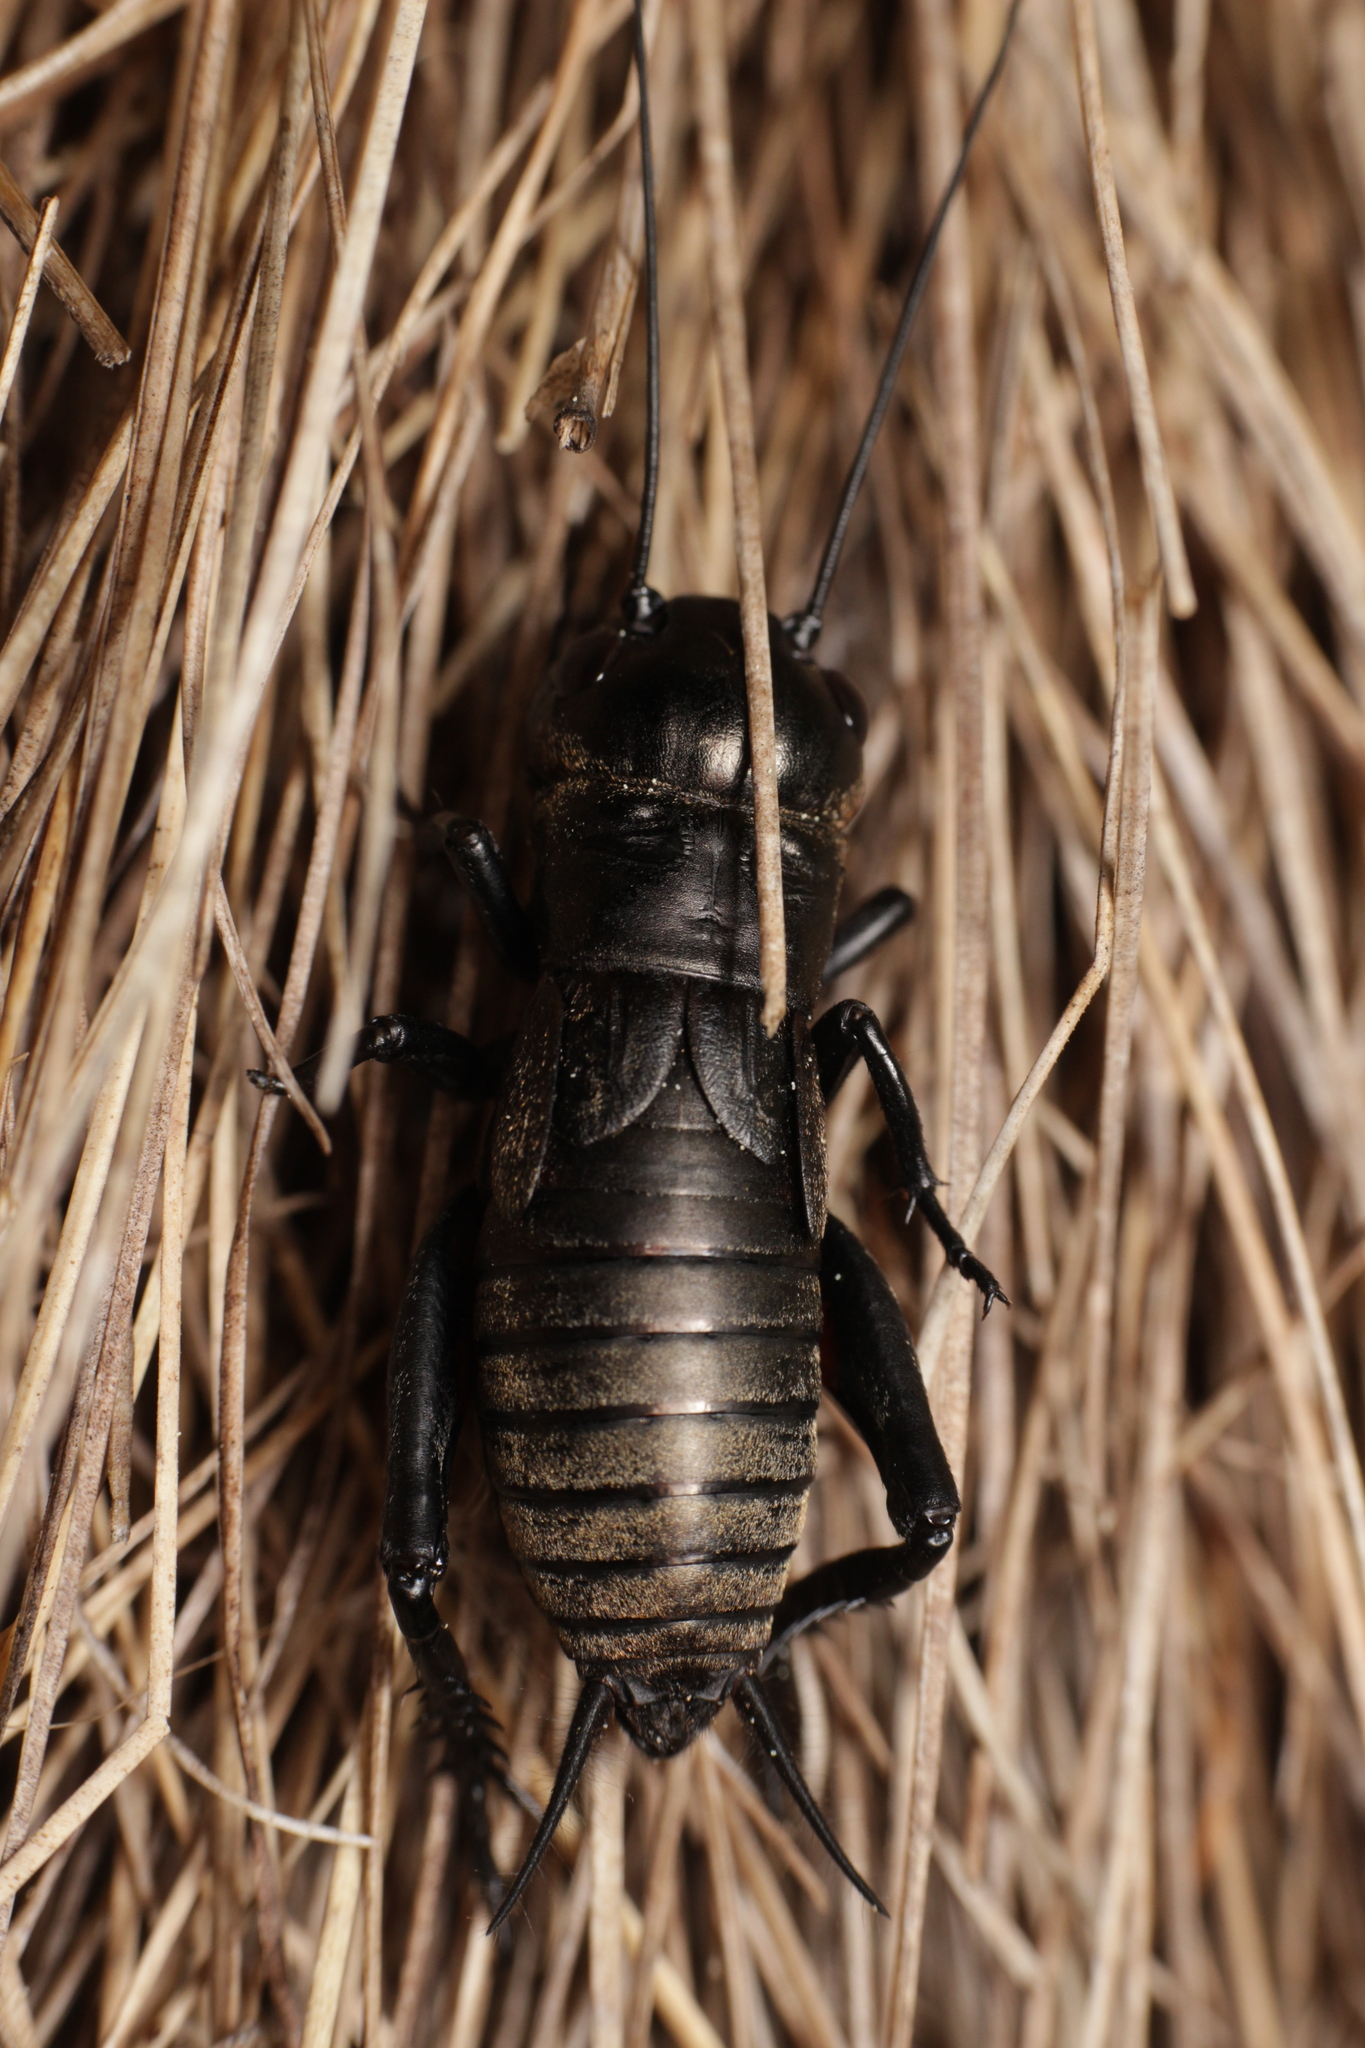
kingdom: Animalia
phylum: Arthropoda
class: Insecta
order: Orthoptera
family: Gryllidae
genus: Gryllus
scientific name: Gryllus campestris
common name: Field cricket
